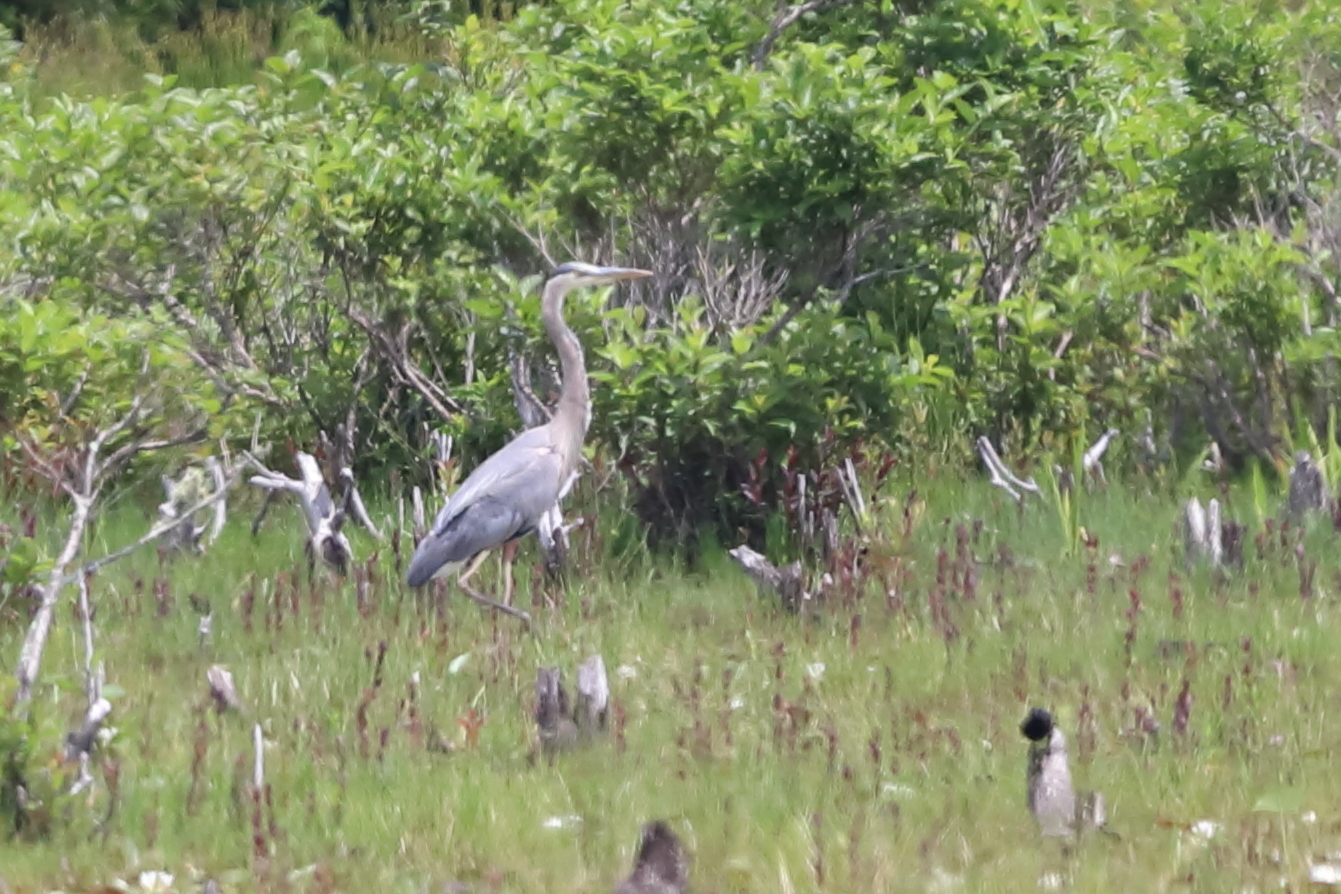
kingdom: Animalia
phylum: Chordata
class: Aves
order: Pelecaniformes
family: Ardeidae
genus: Ardea
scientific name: Ardea herodias
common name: Great blue heron
